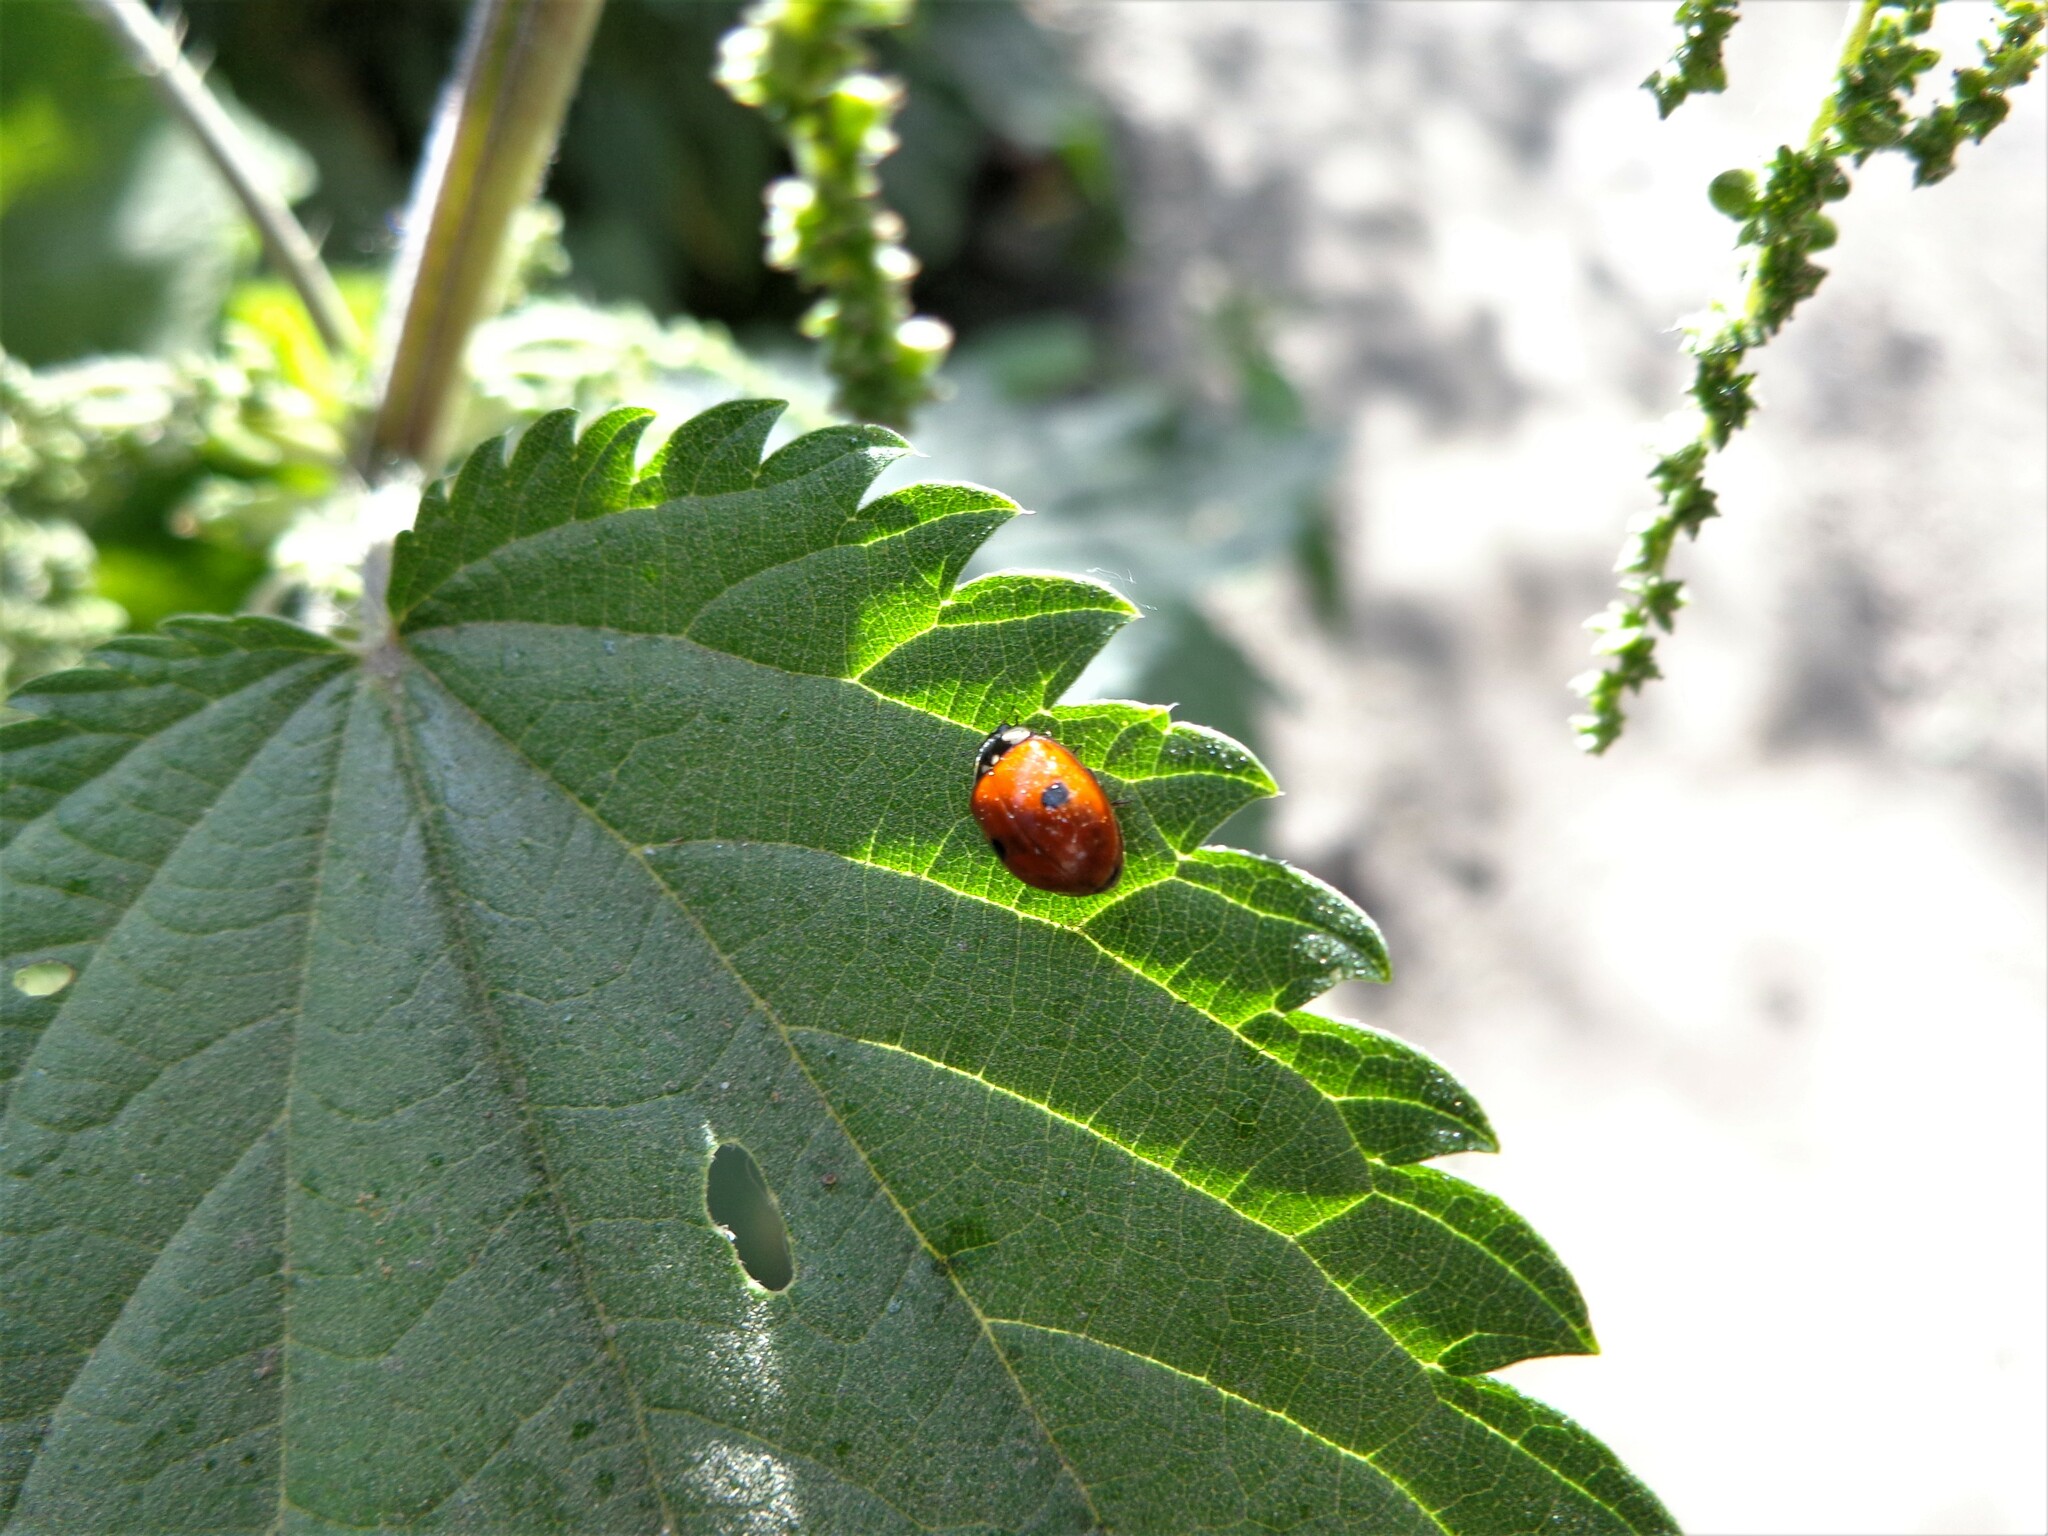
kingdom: Animalia
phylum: Arthropoda
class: Insecta
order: Coleoptera
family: Coccinellidae
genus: Adalia
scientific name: Adalia bipunctata
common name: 2-spot ladybird
